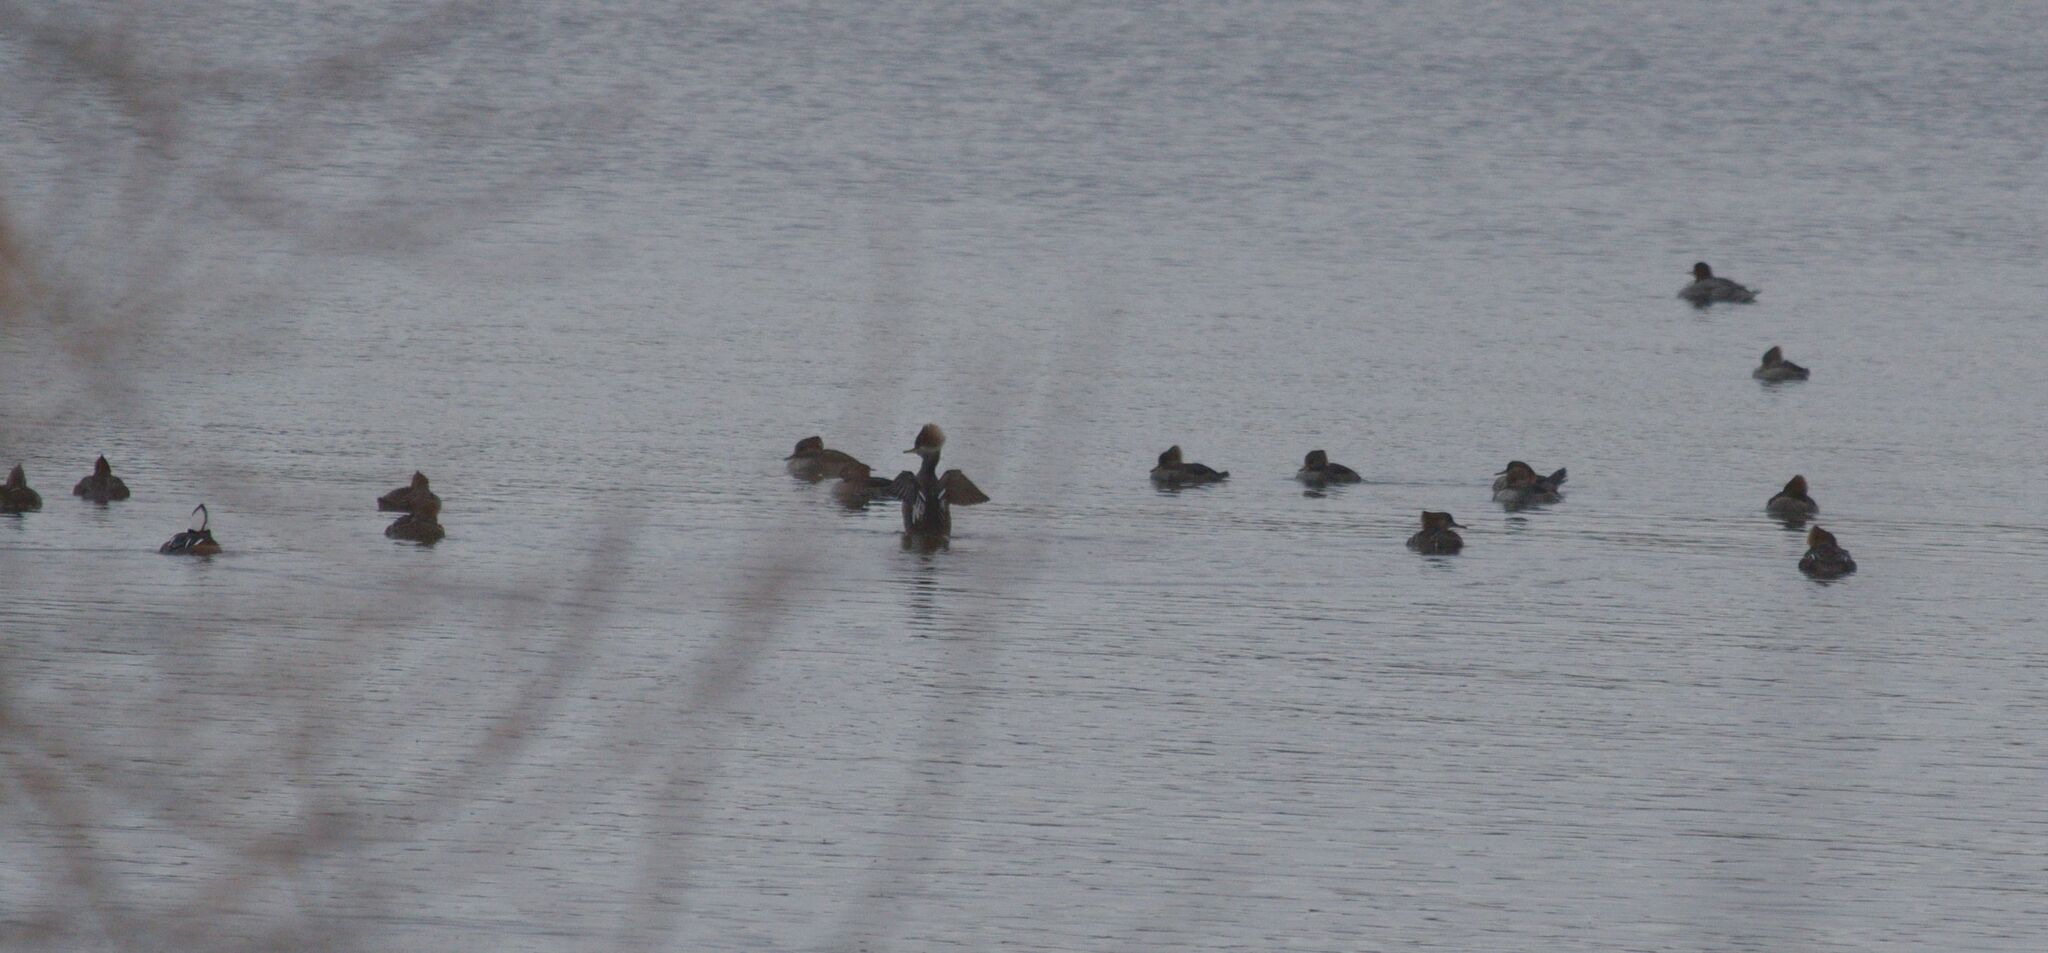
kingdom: Animalia
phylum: Chordata
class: Aves
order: Anseriformes
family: Anatidae
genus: Lophodytes
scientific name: Lophodytes cucullatus
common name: Hooded merganser
